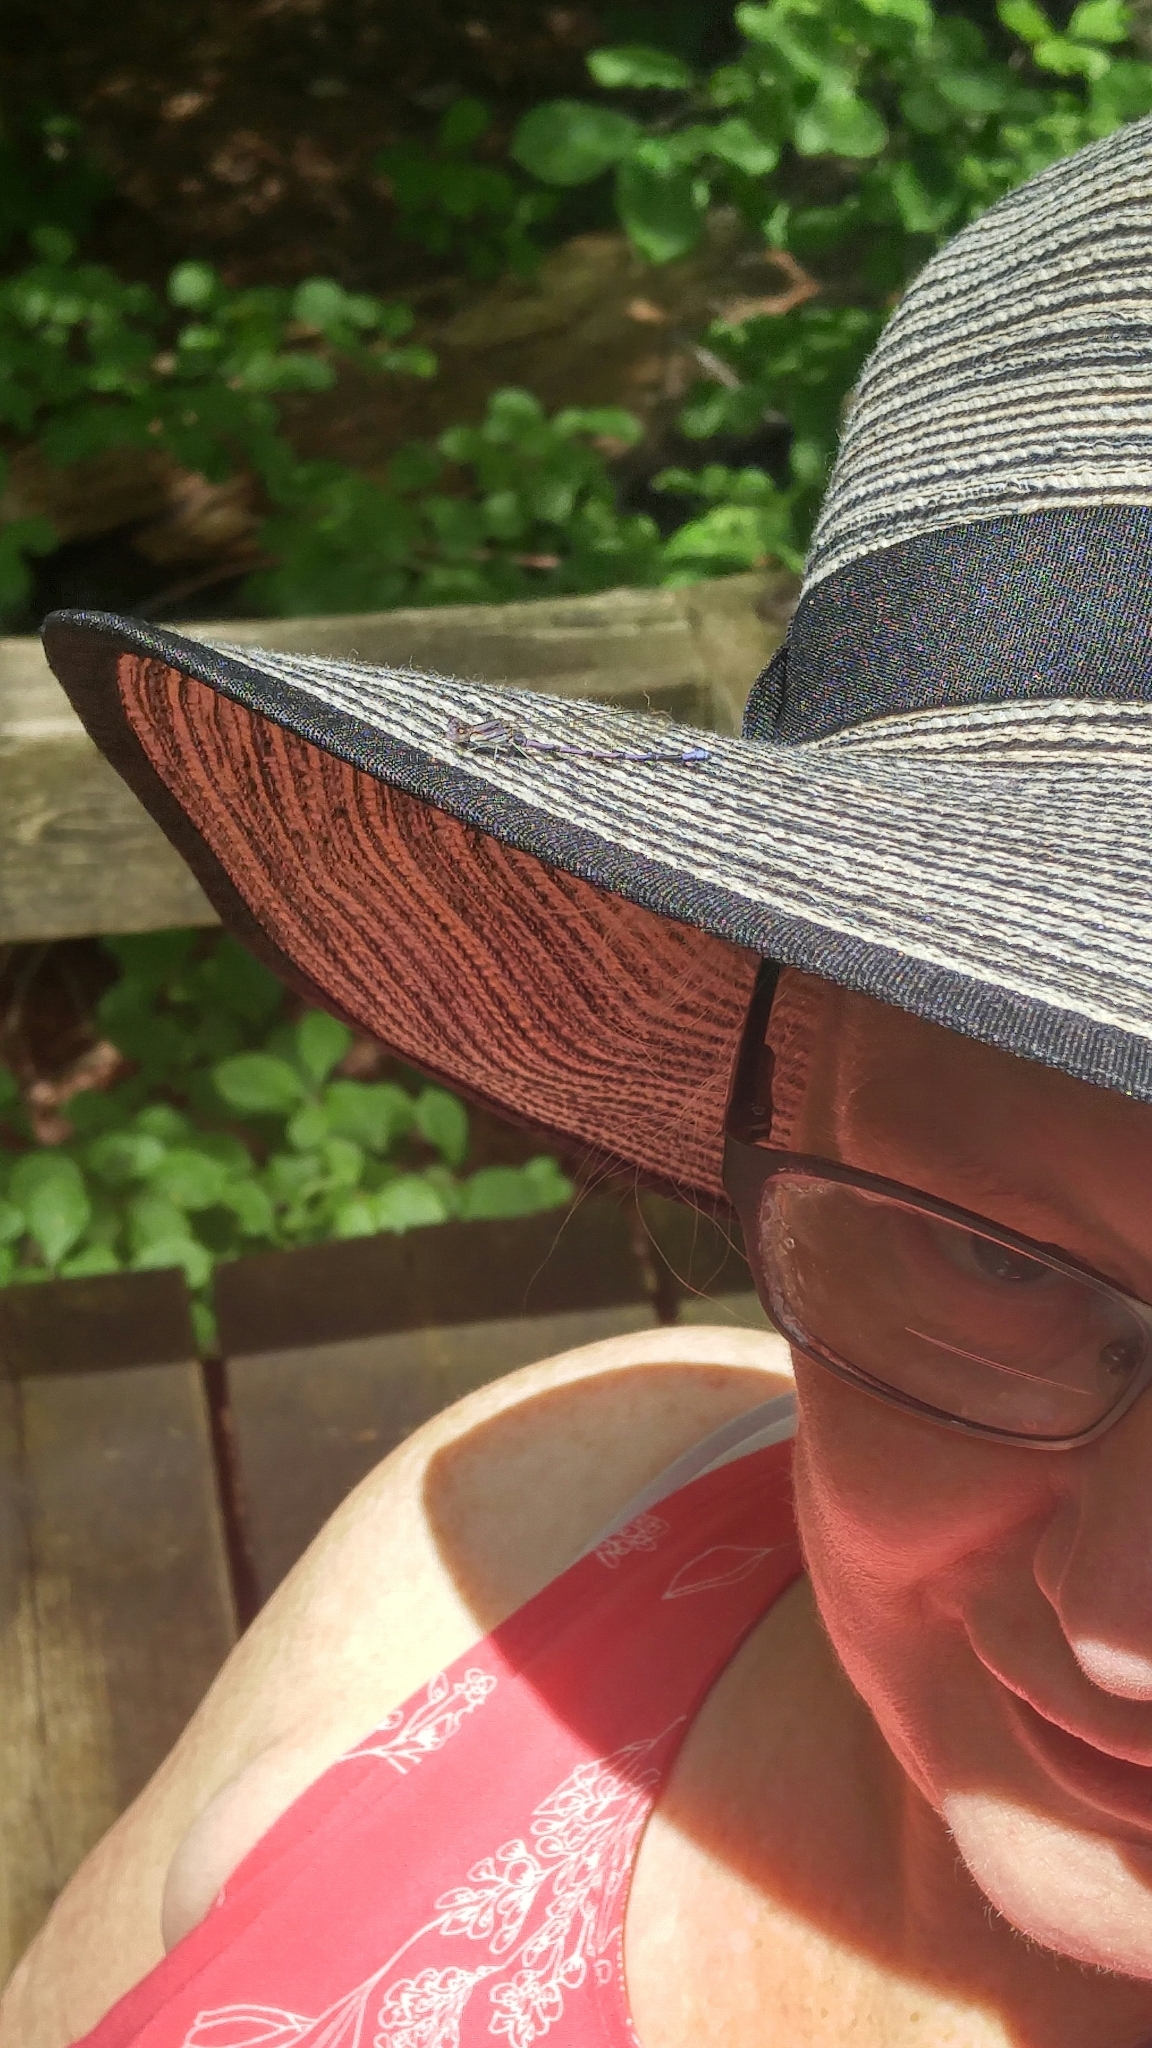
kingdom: Animalia
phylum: Arthropoda
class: Insecta
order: Odonata
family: Coenagrionidae
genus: Argia
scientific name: Argia fumipennis
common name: Variable dancer
